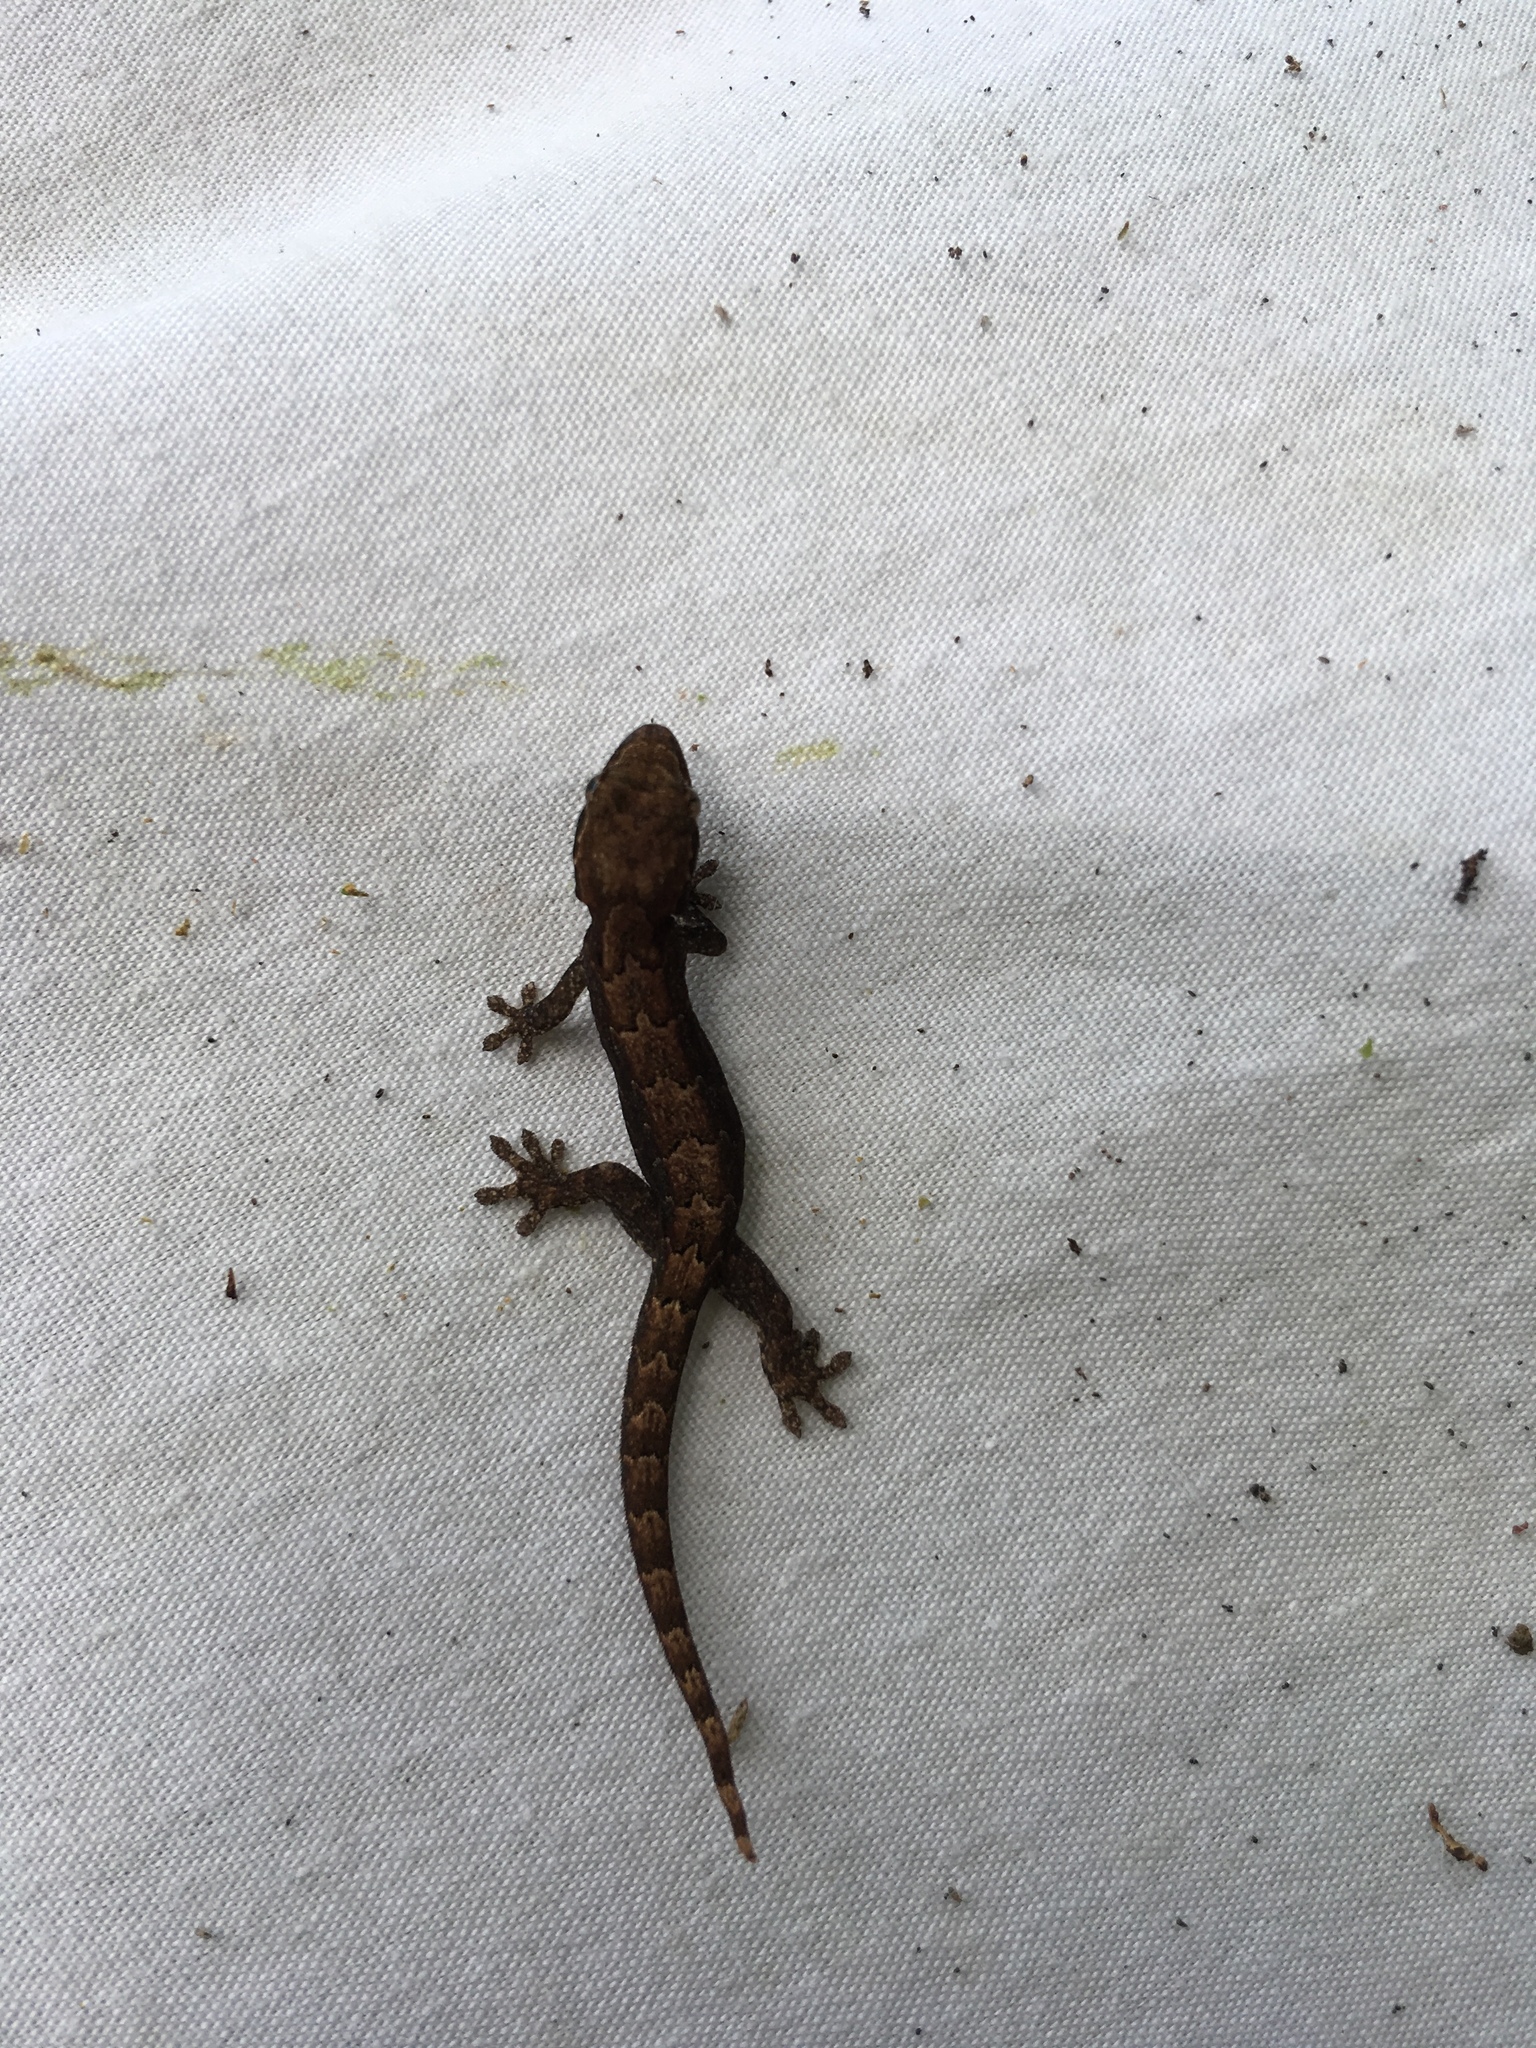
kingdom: Animalia
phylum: Chordata
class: Squamata
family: Gekkonidae
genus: Lepidodactylus
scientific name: Lepidodactylus lugubris
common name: Mourning gecko
